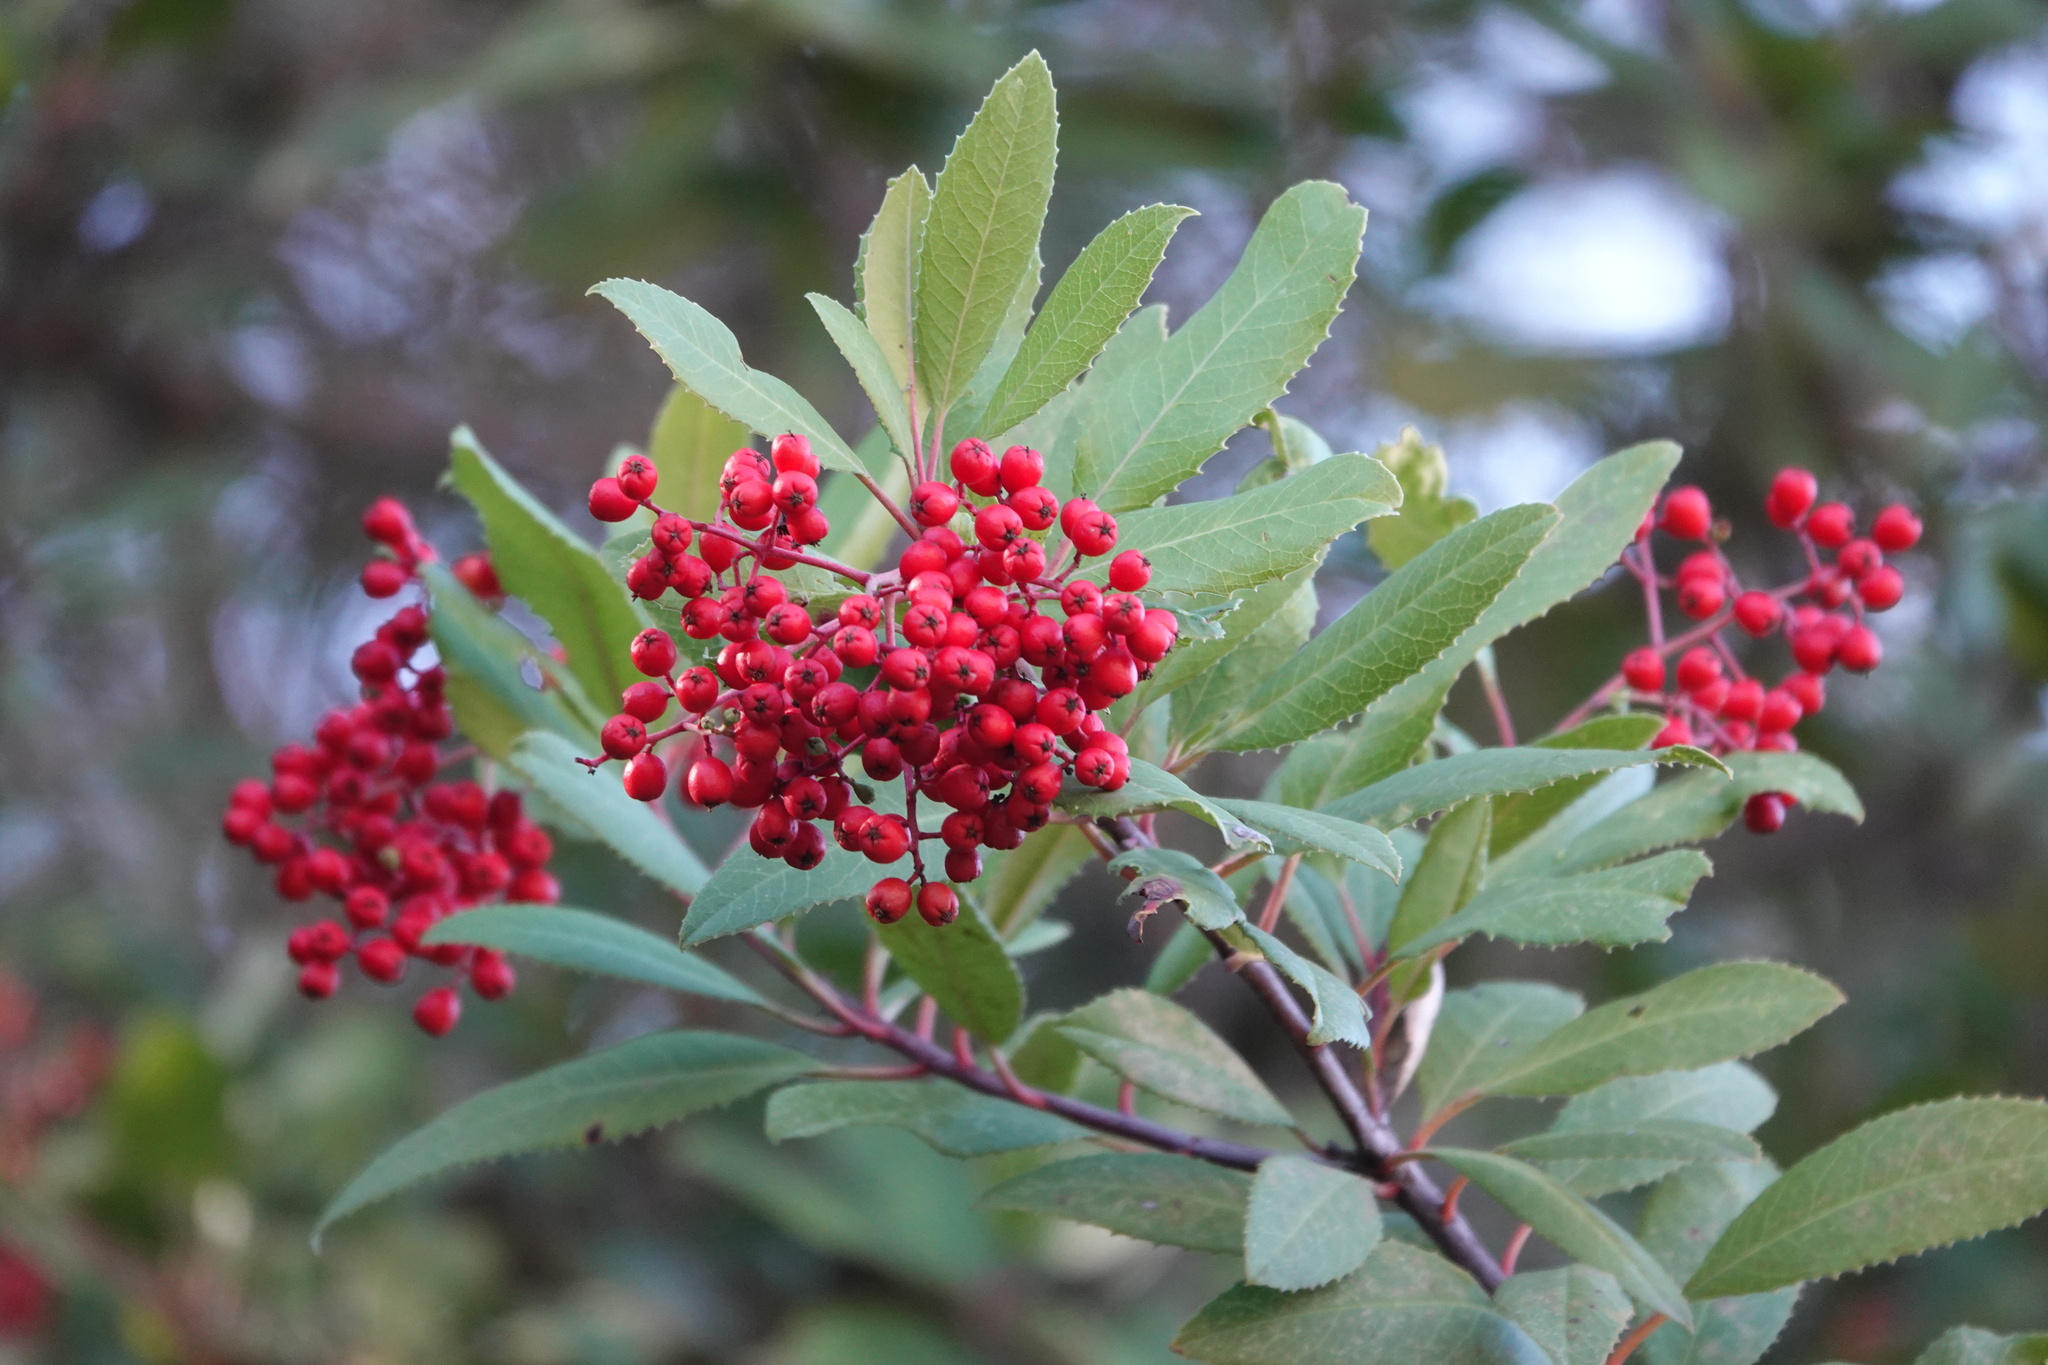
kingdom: Plantae
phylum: Tracheophyta
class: Magnoliopsida
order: Rosales
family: Rosaceae
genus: Heteromeles
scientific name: Heteromeles arbutifolia
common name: California-holly
